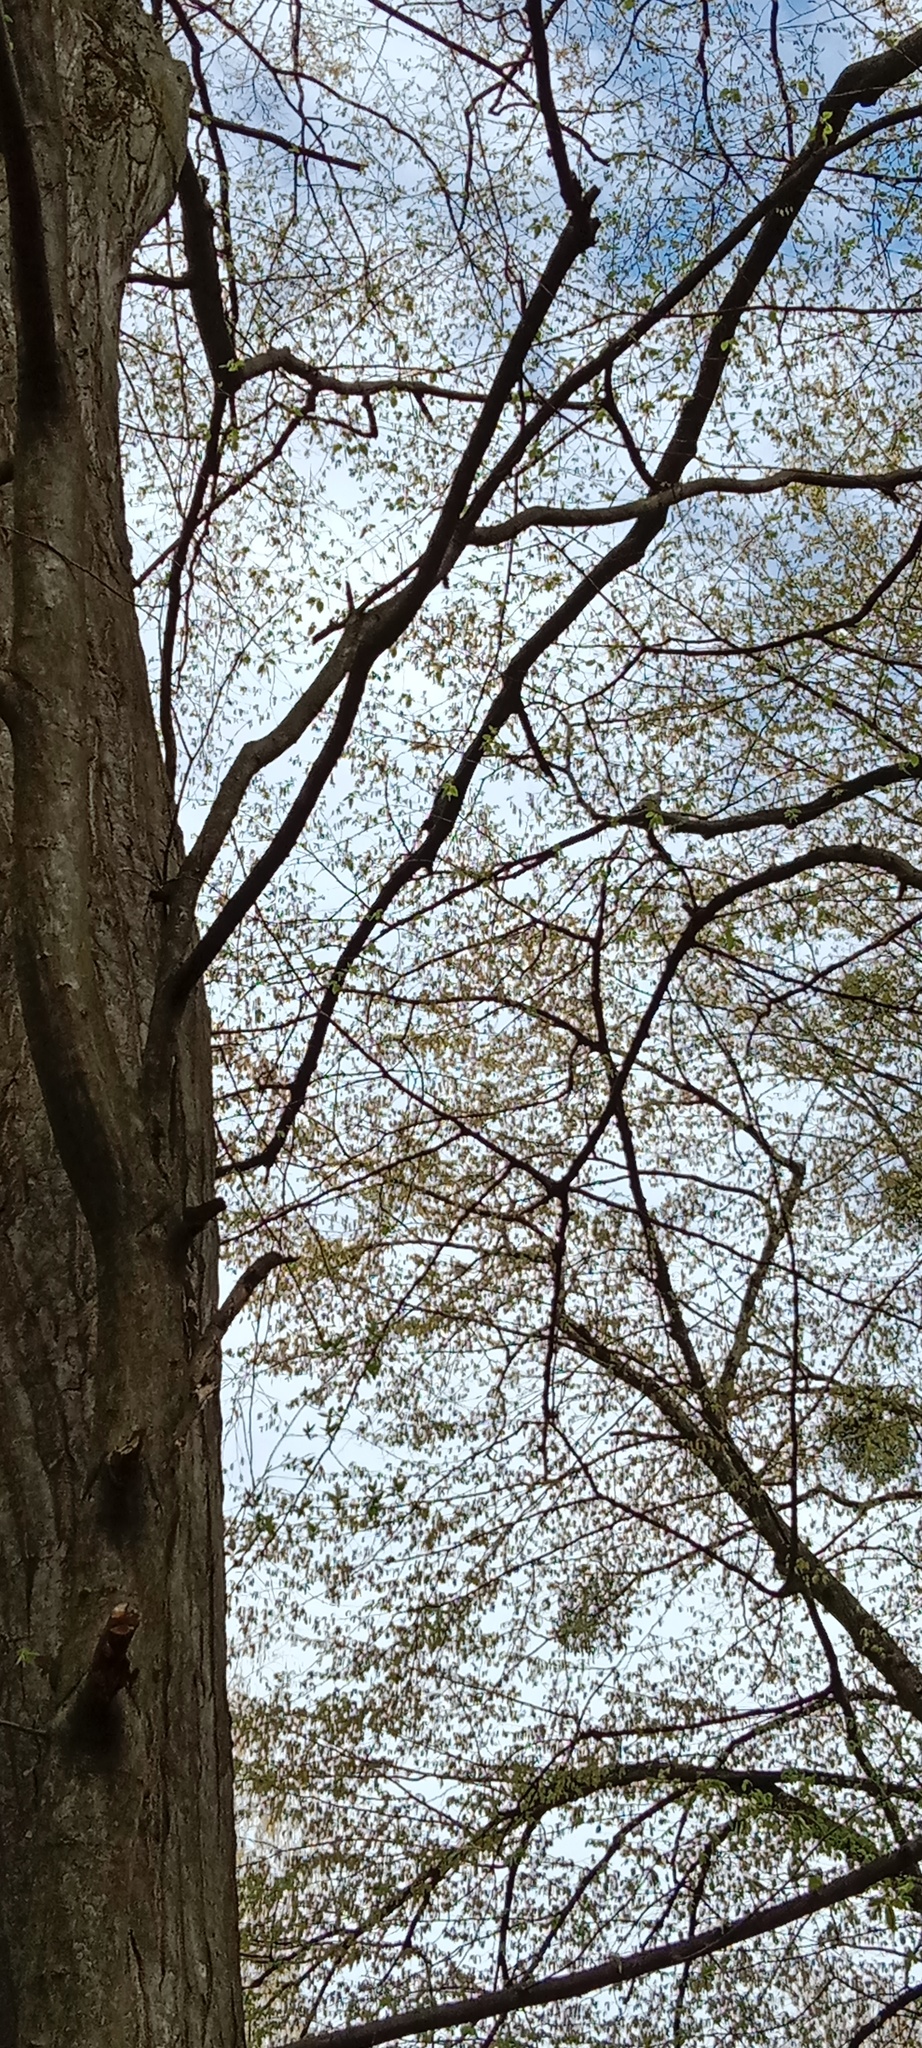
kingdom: Animalia
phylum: Chordata
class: Aves
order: Columbiformes
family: Columbidae
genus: Columba
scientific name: Columba palumbus
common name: Common wood pigeon
